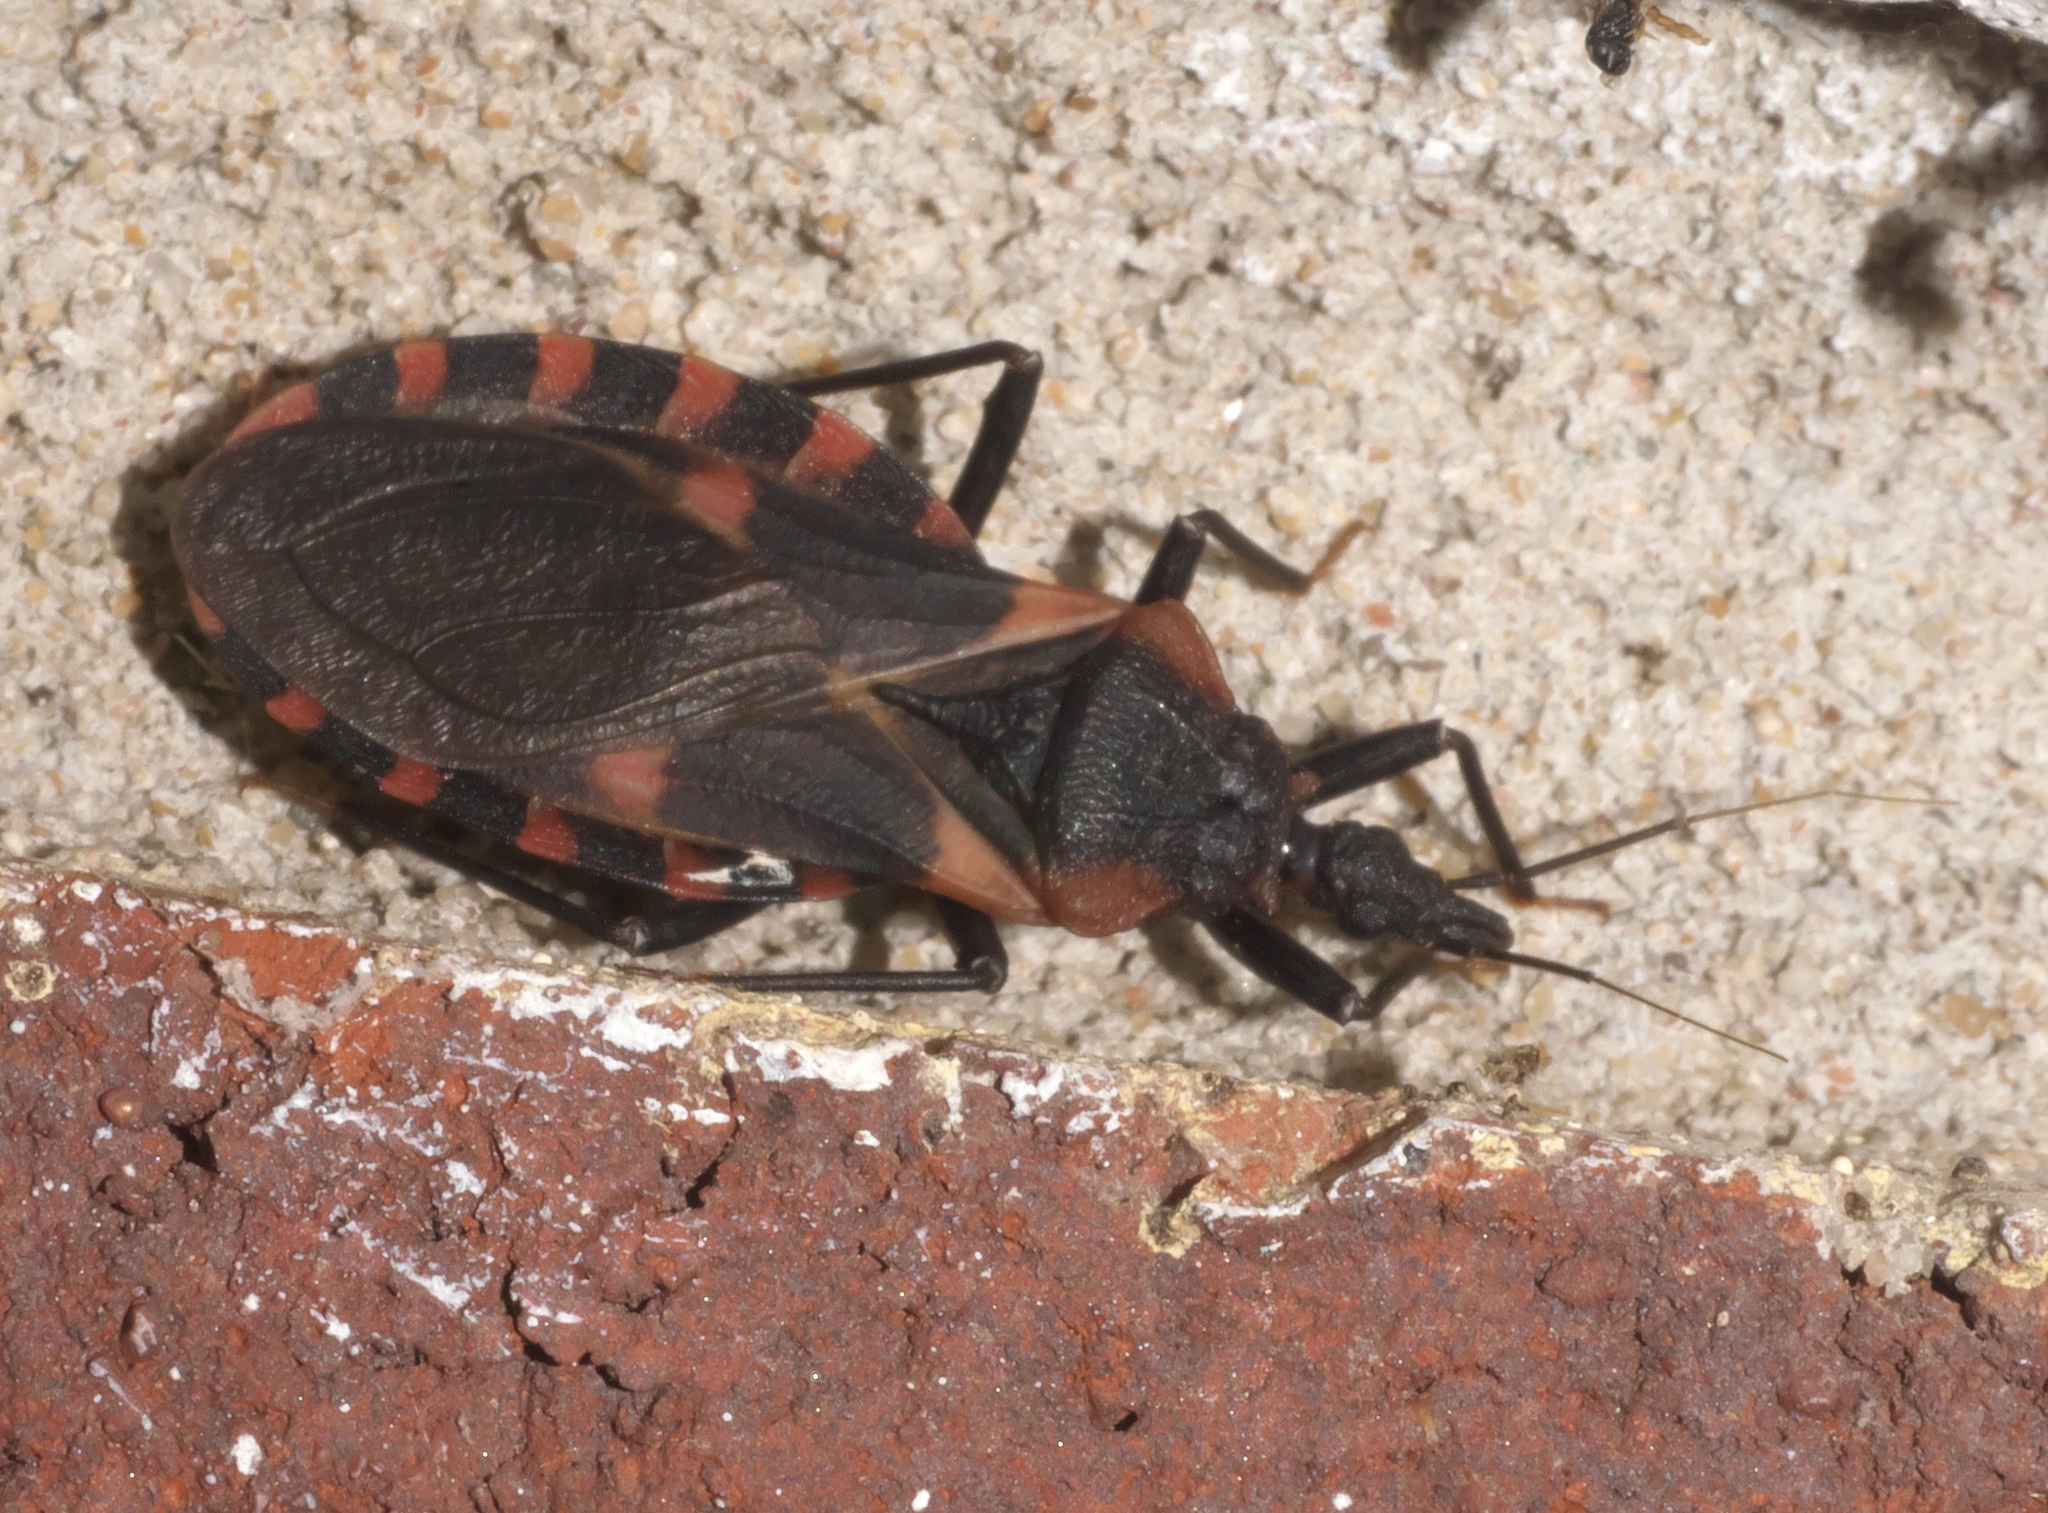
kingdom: Animalia
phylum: Arthropoda
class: Insecta
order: Hemiptera
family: Reduviidae
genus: Triatoma
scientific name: Triatoma sanguisuga
